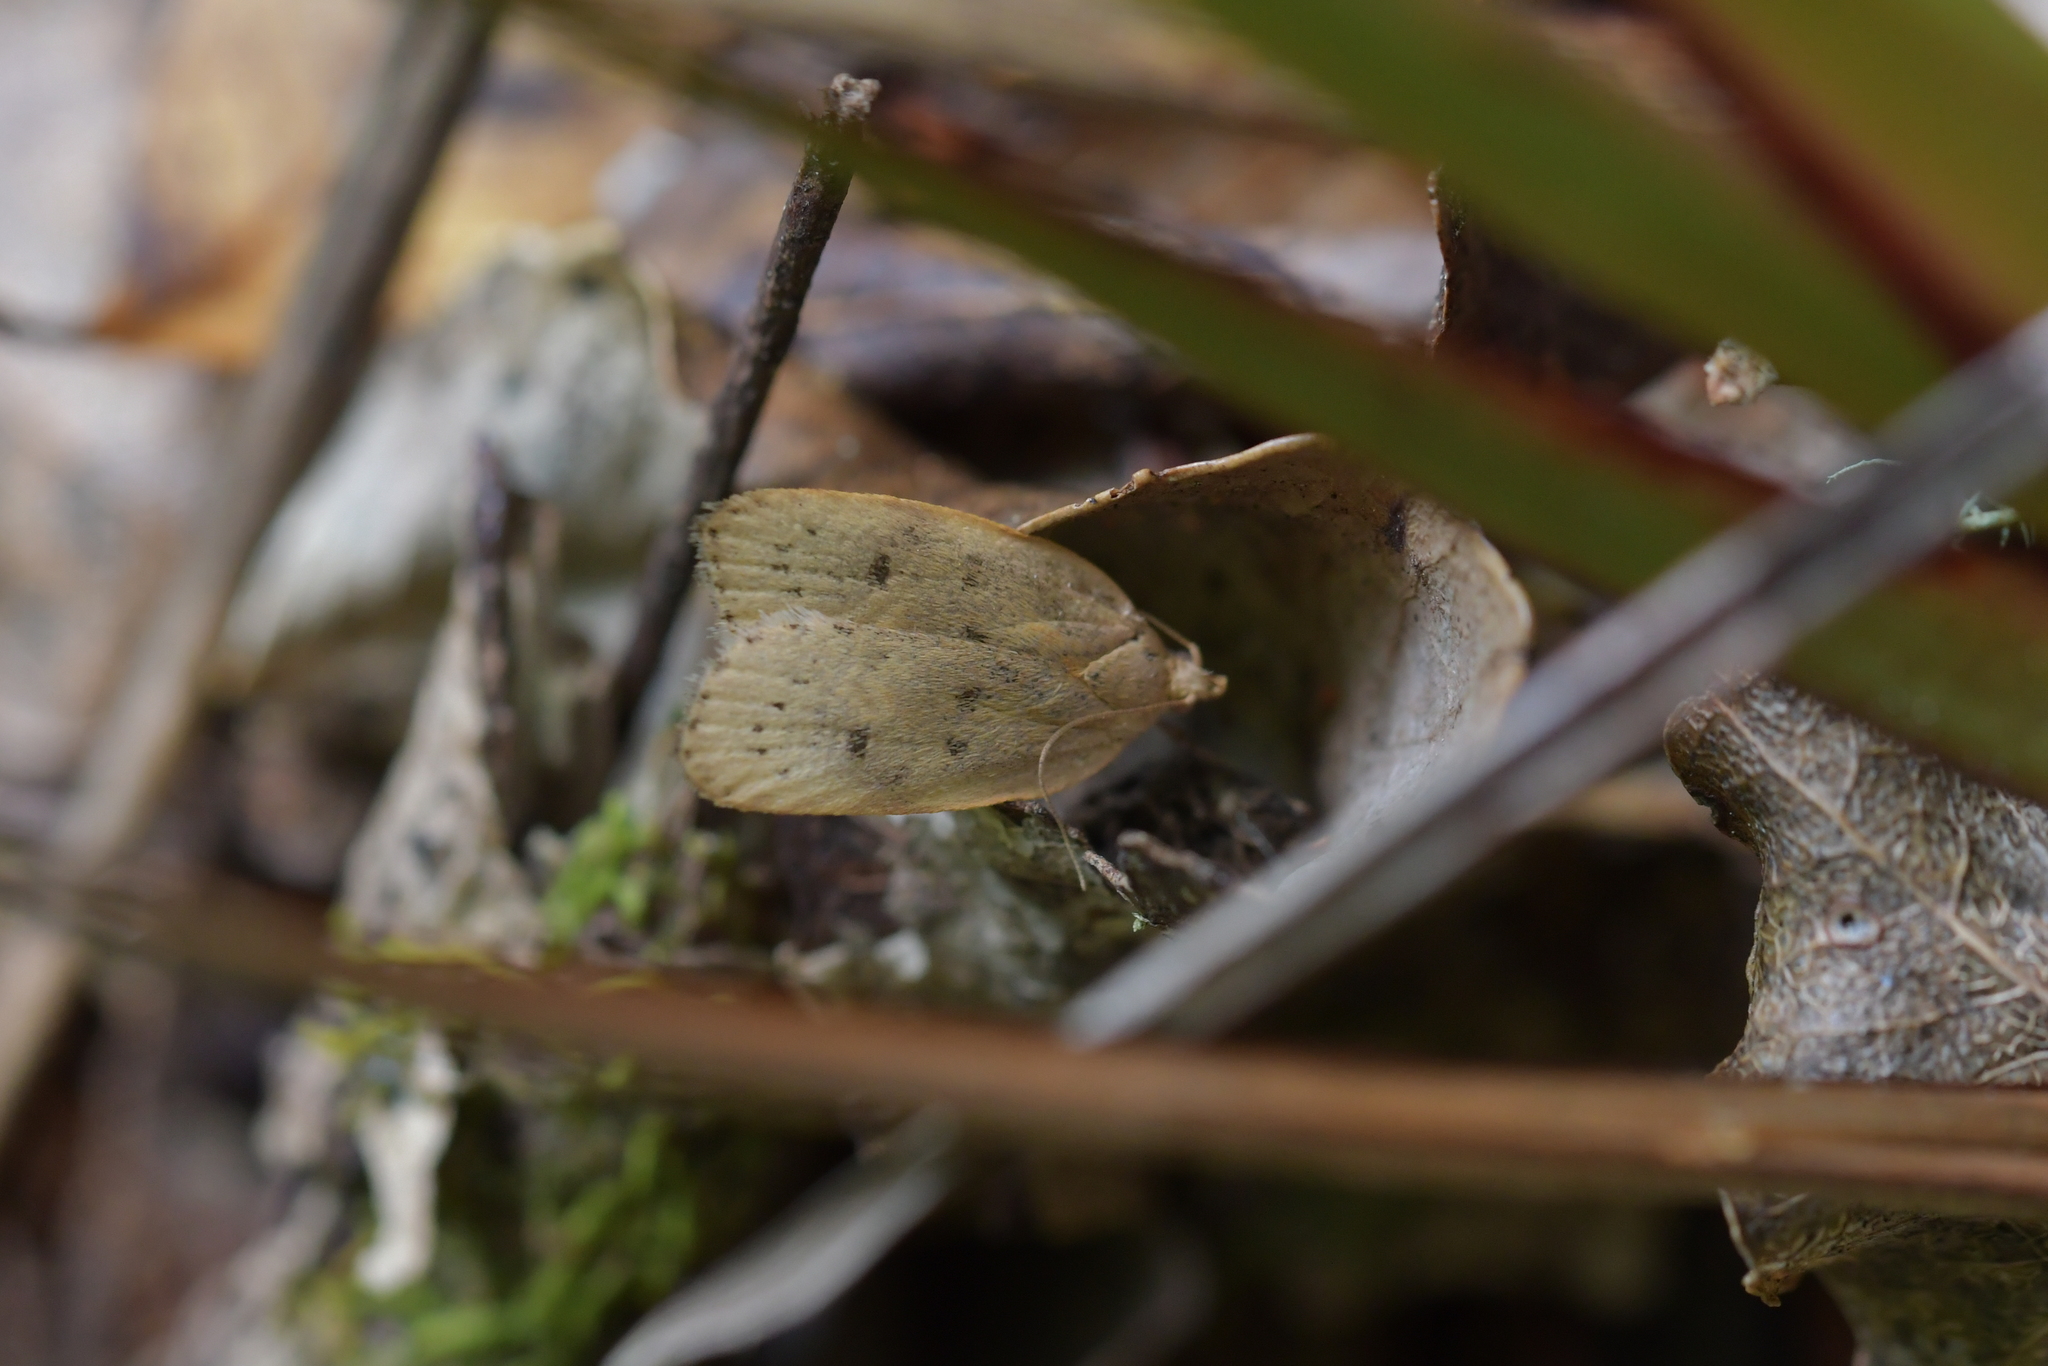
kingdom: Animalia
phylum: Arthropoda
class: Insecta
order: Lepidoptera
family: Depressariidae
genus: Phaeosaces
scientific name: Phaeosaces coarctatella
